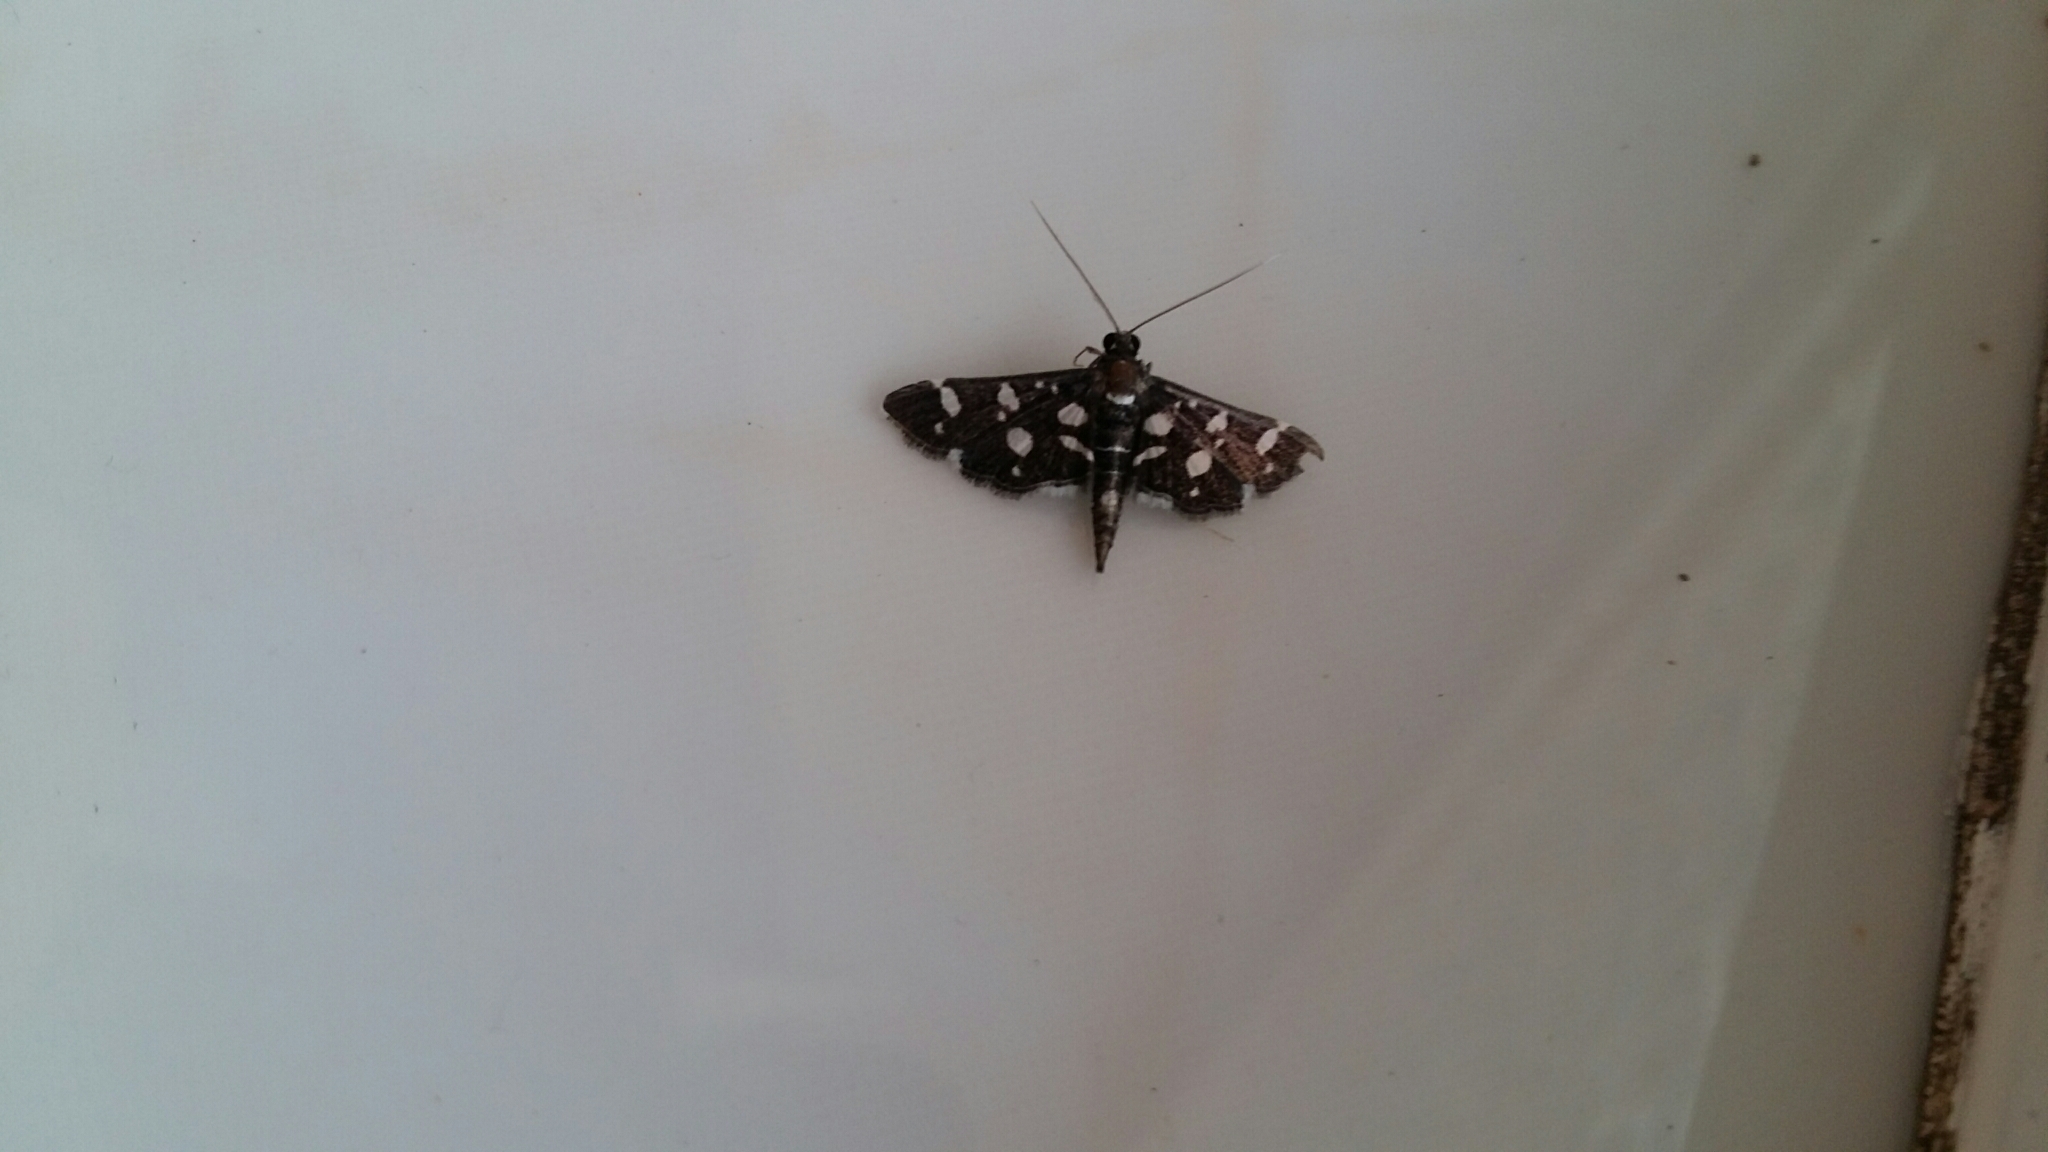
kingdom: Animalia
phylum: Arthropoda
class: Insecta
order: Lepidoptera
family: Crambidae
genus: Bocchoris
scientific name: Bocchoris inspersalis
